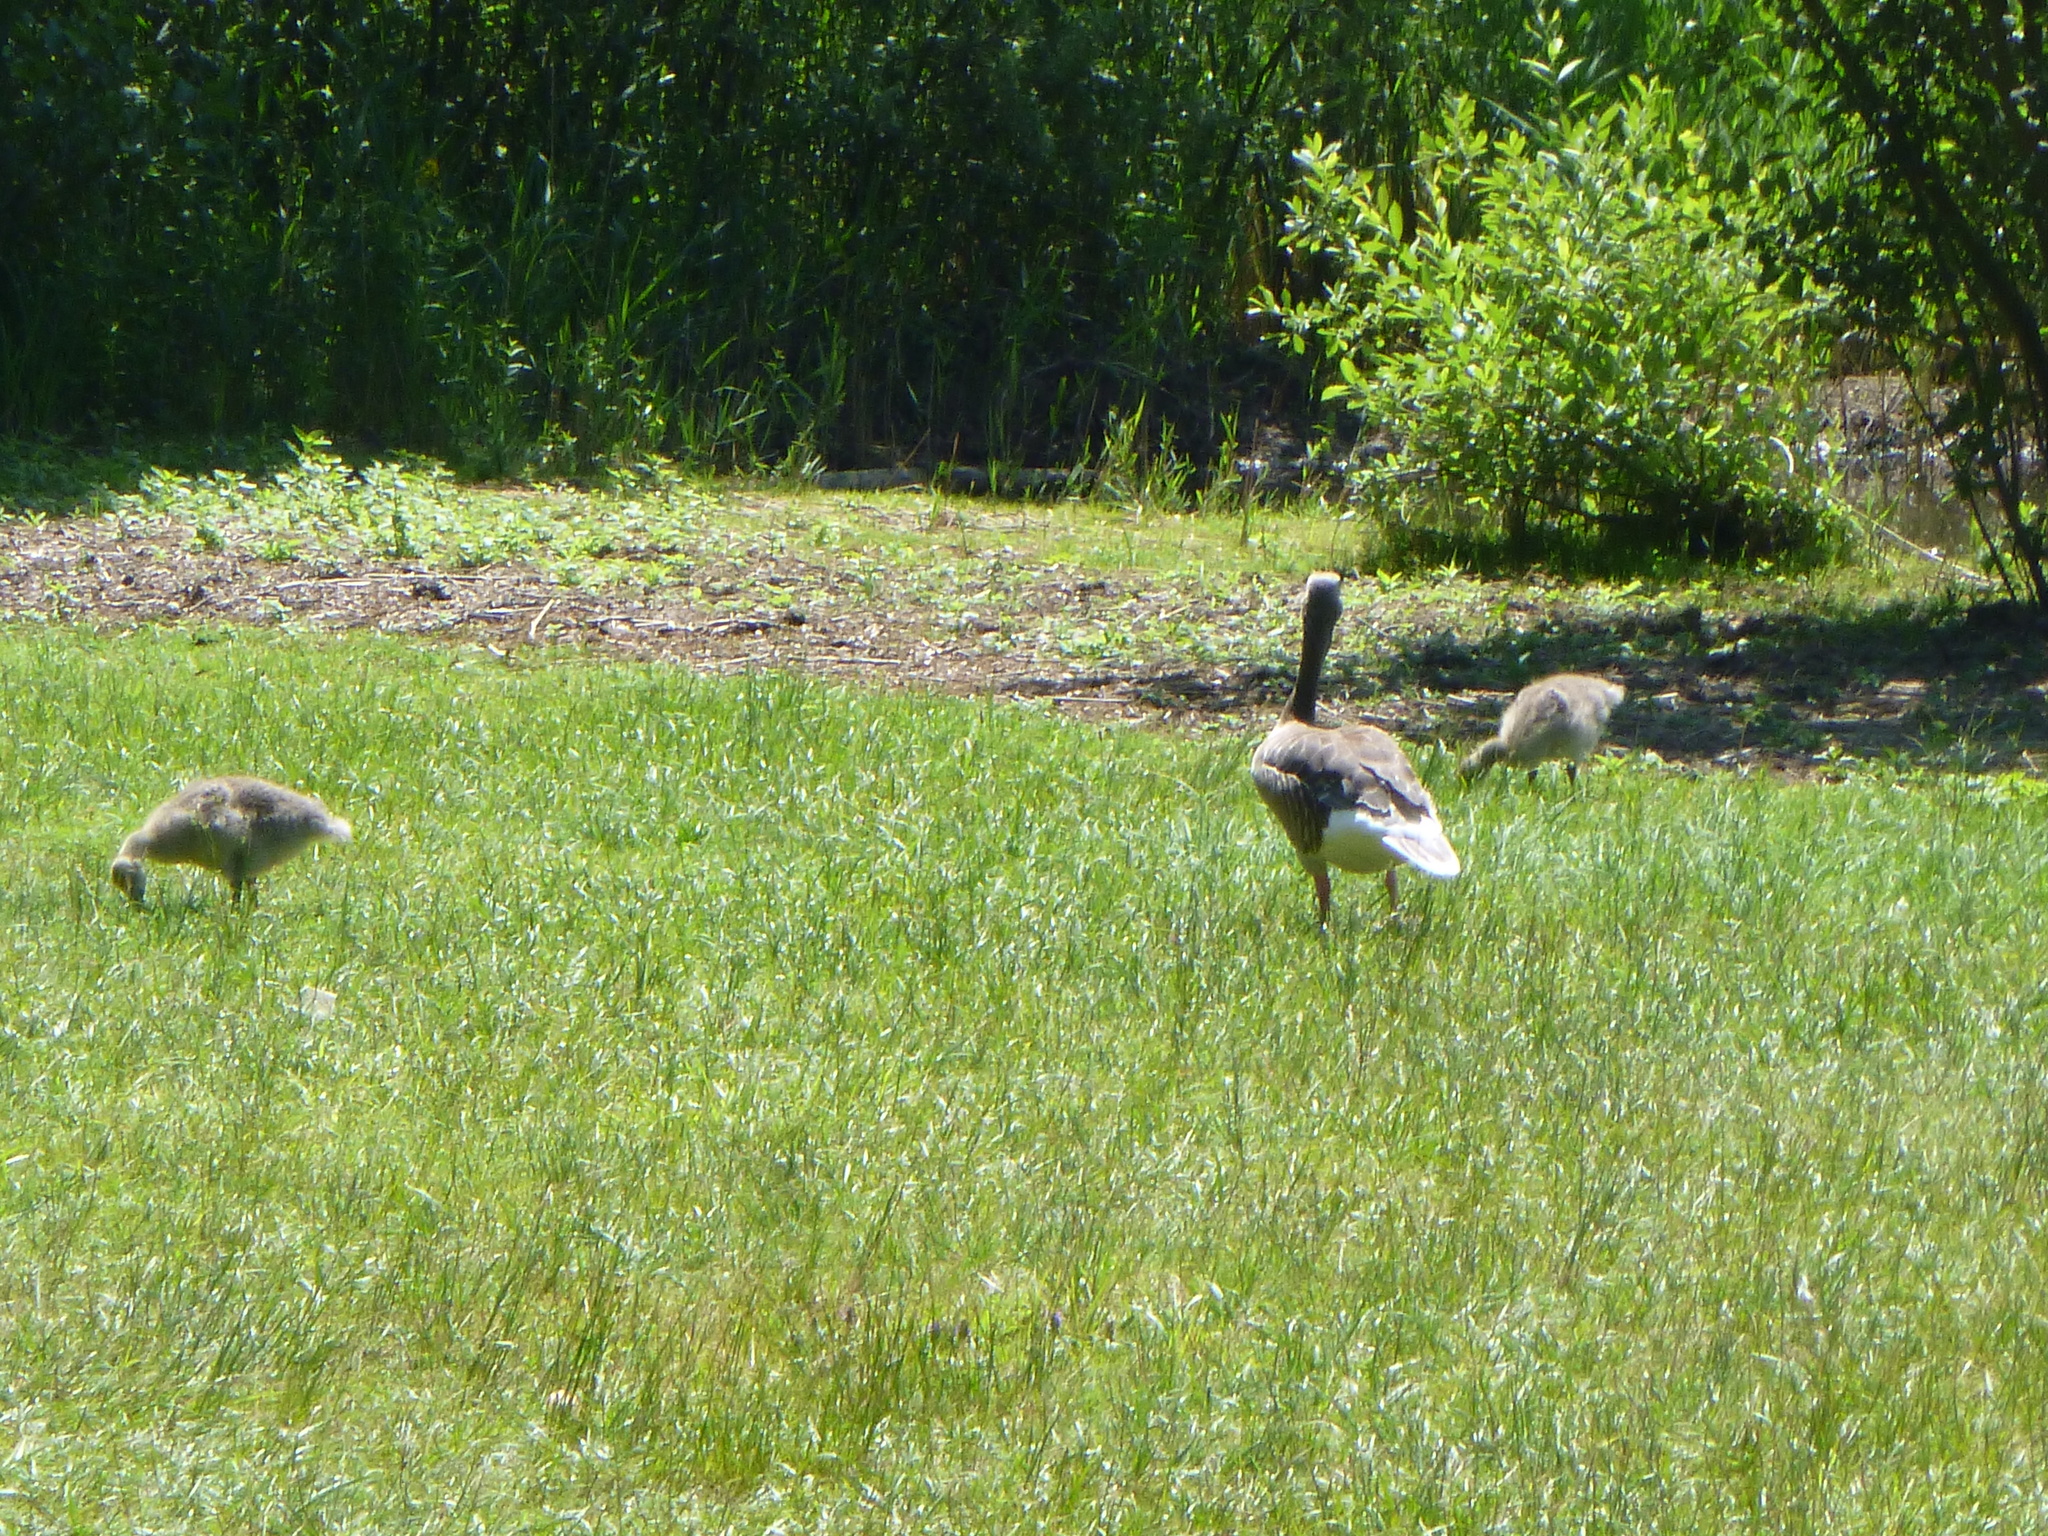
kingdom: Animalia
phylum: Chordata
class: Aves
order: Anseriformes
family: Anatidae
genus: Anser
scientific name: Anser anser
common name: Greylag goose
